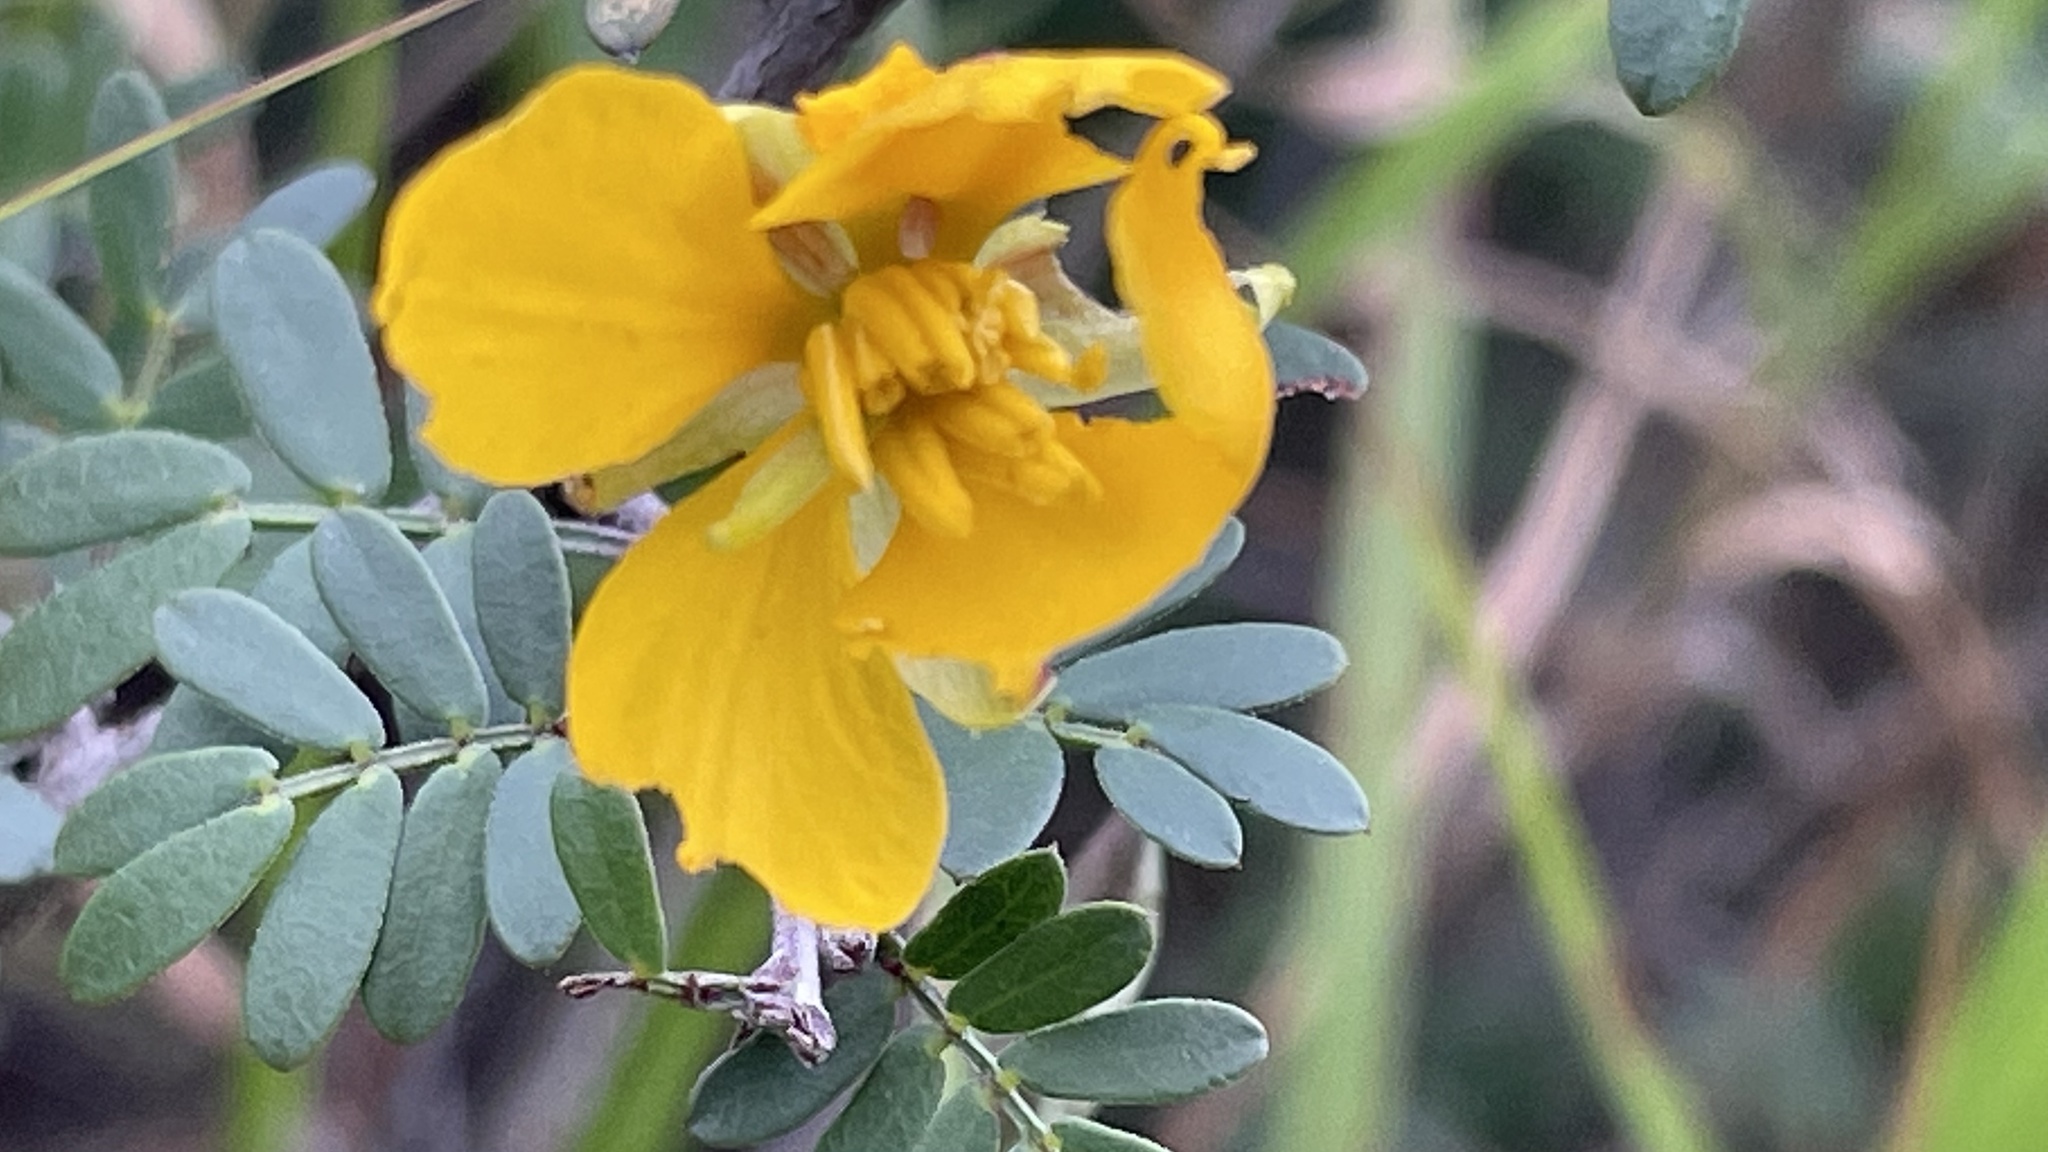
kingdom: Plantae
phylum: Tracheophyta
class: Magnoliopsida
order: Fabales
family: Fabaceae
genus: Chamaecrista
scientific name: Chamaecrista greggii
